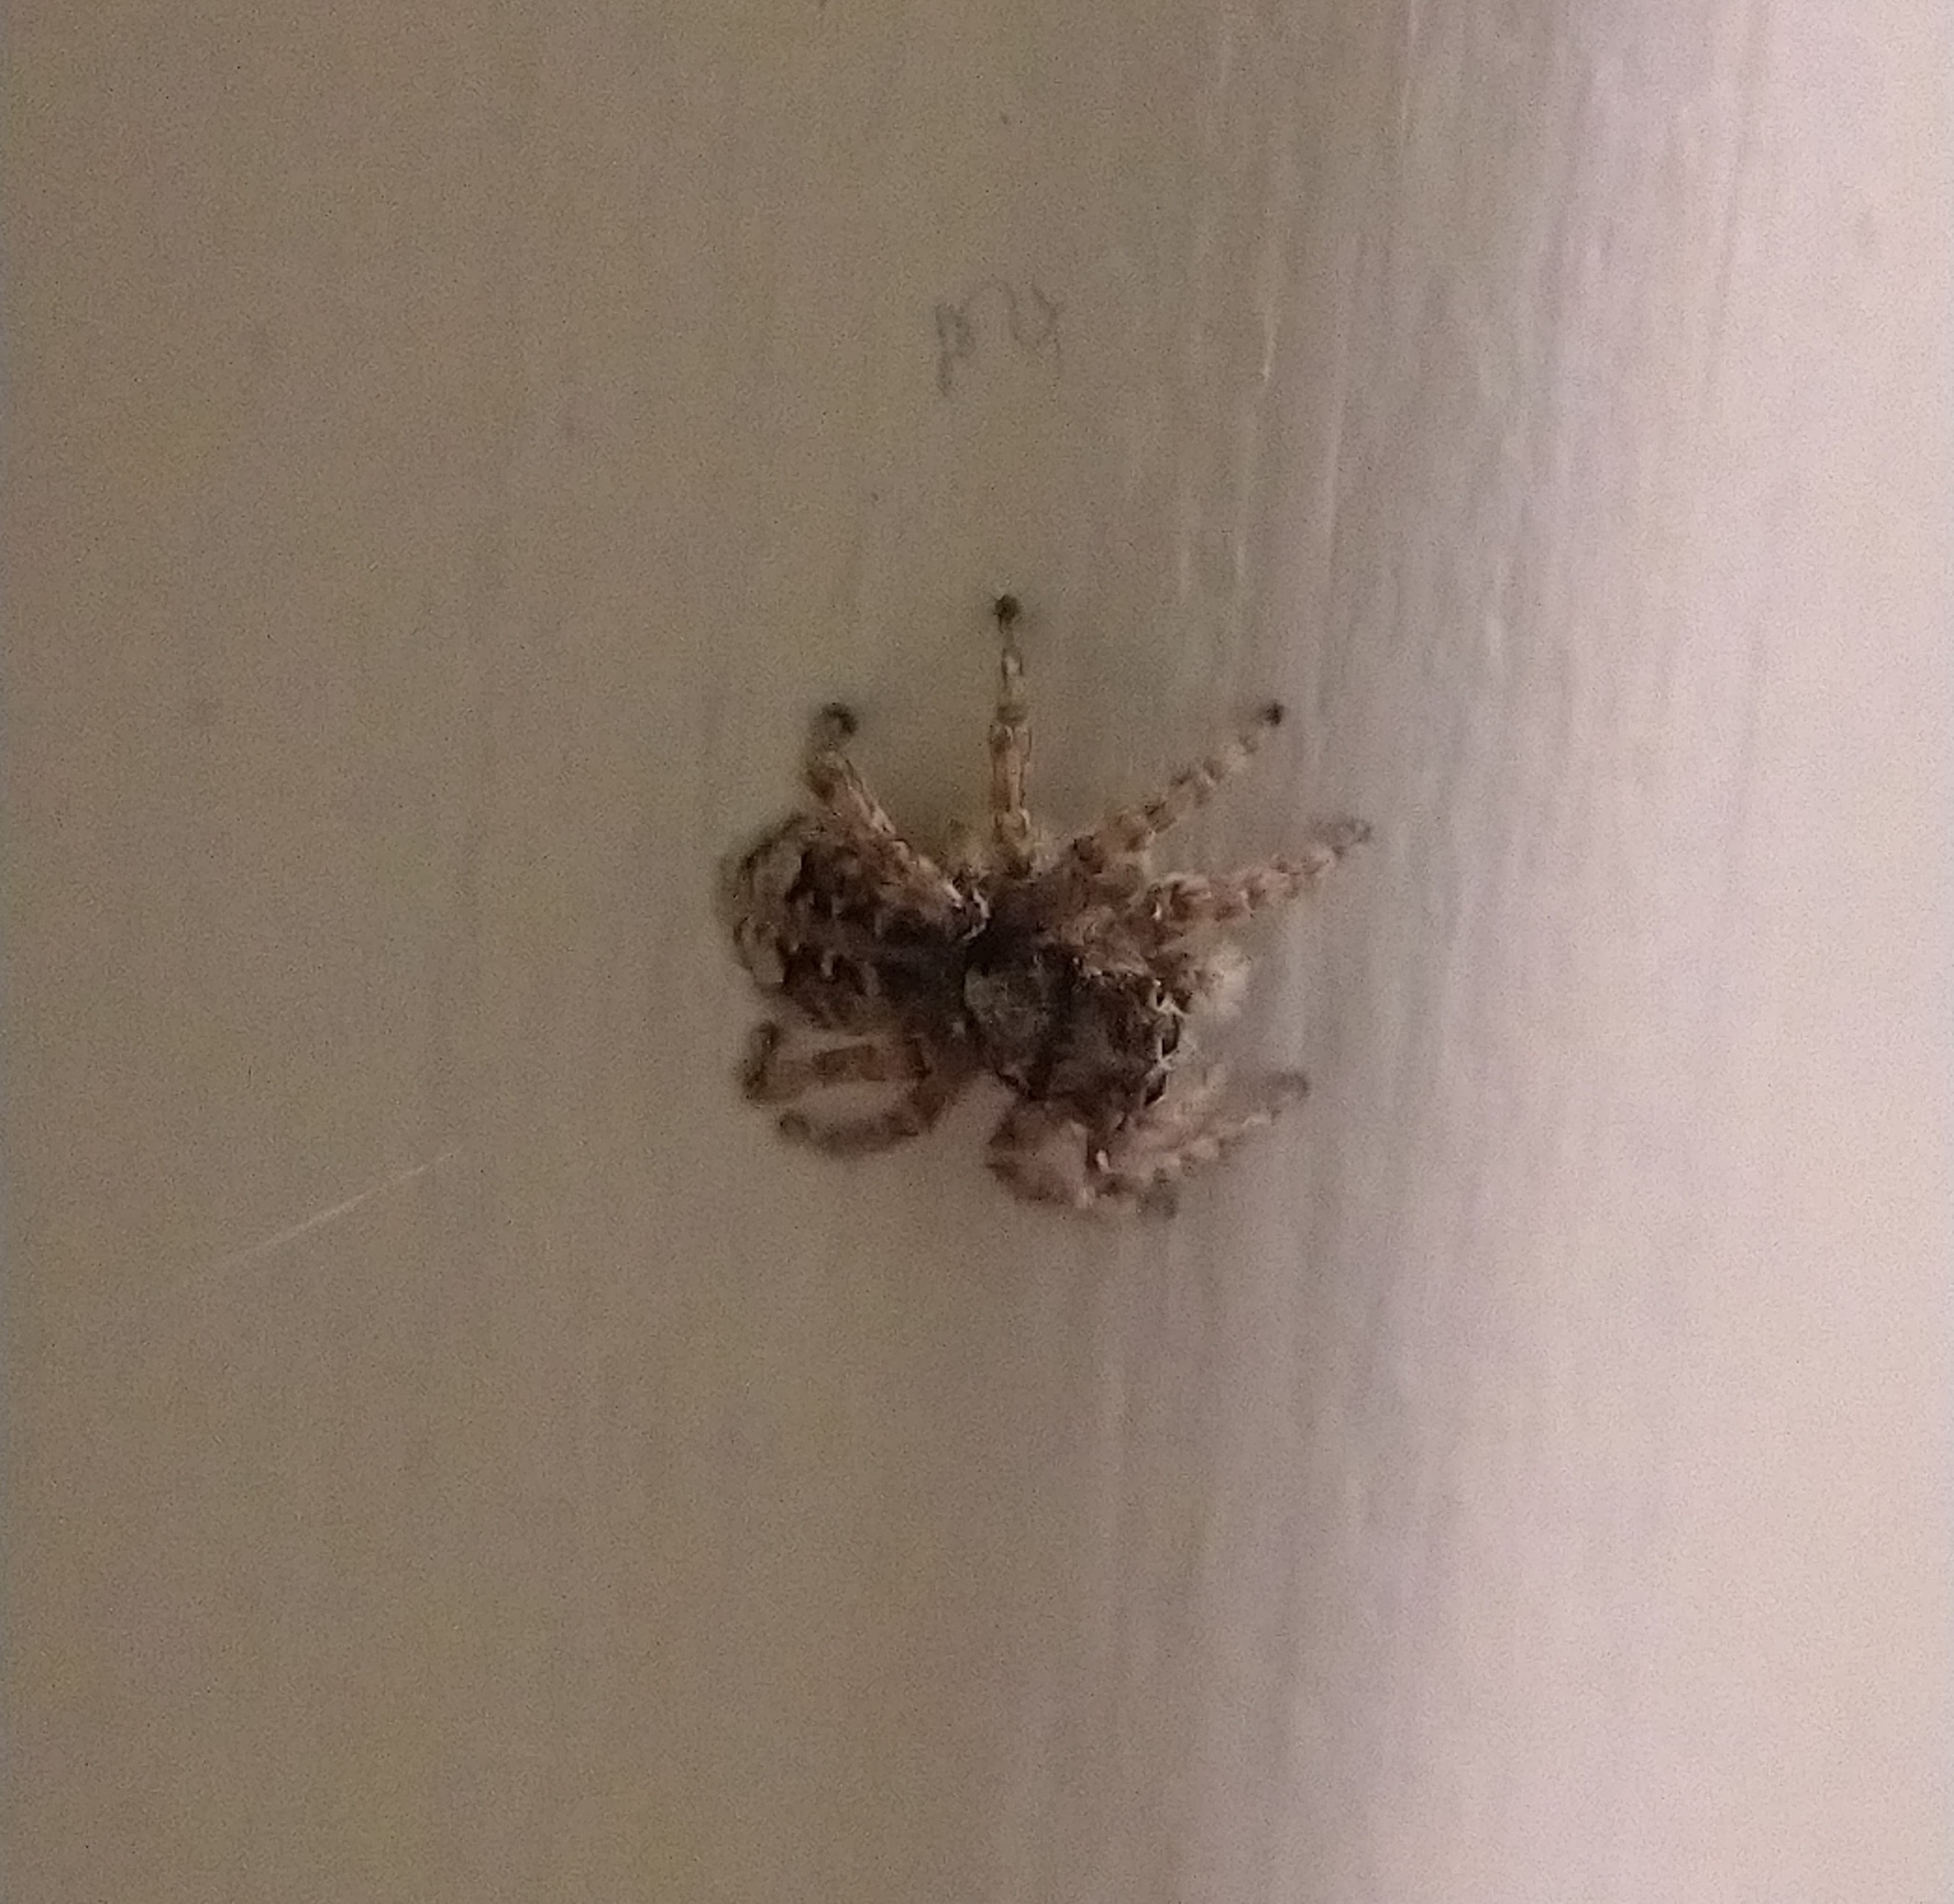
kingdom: Animalia
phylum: Arthropoda
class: Arachnida
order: Araneae
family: Salticidae
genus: Attulus
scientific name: Attulus fasciger
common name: Asiatic wall jumping spider
